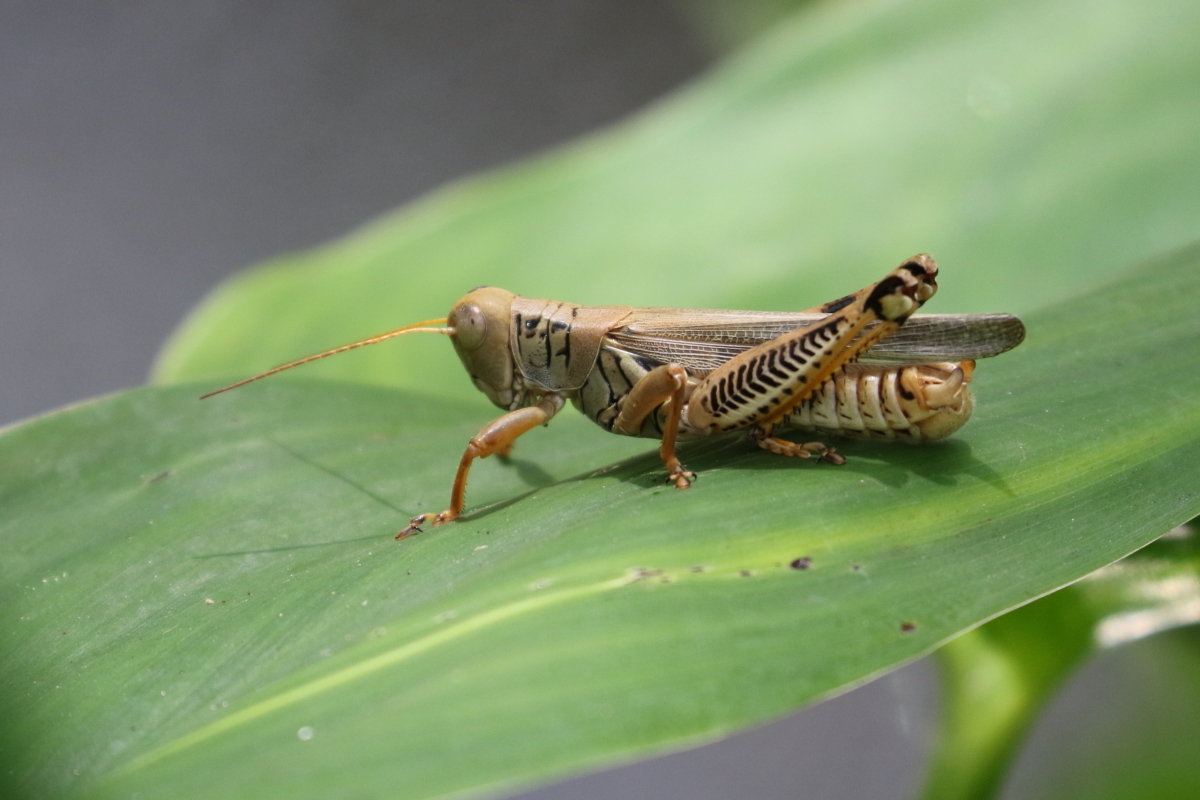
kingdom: Animalia
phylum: Arthropoda
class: Insecta
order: Orthoptera
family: Acrididae
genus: Melanoplus
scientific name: Melanoplus differentialis
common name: Differential grasshopper
